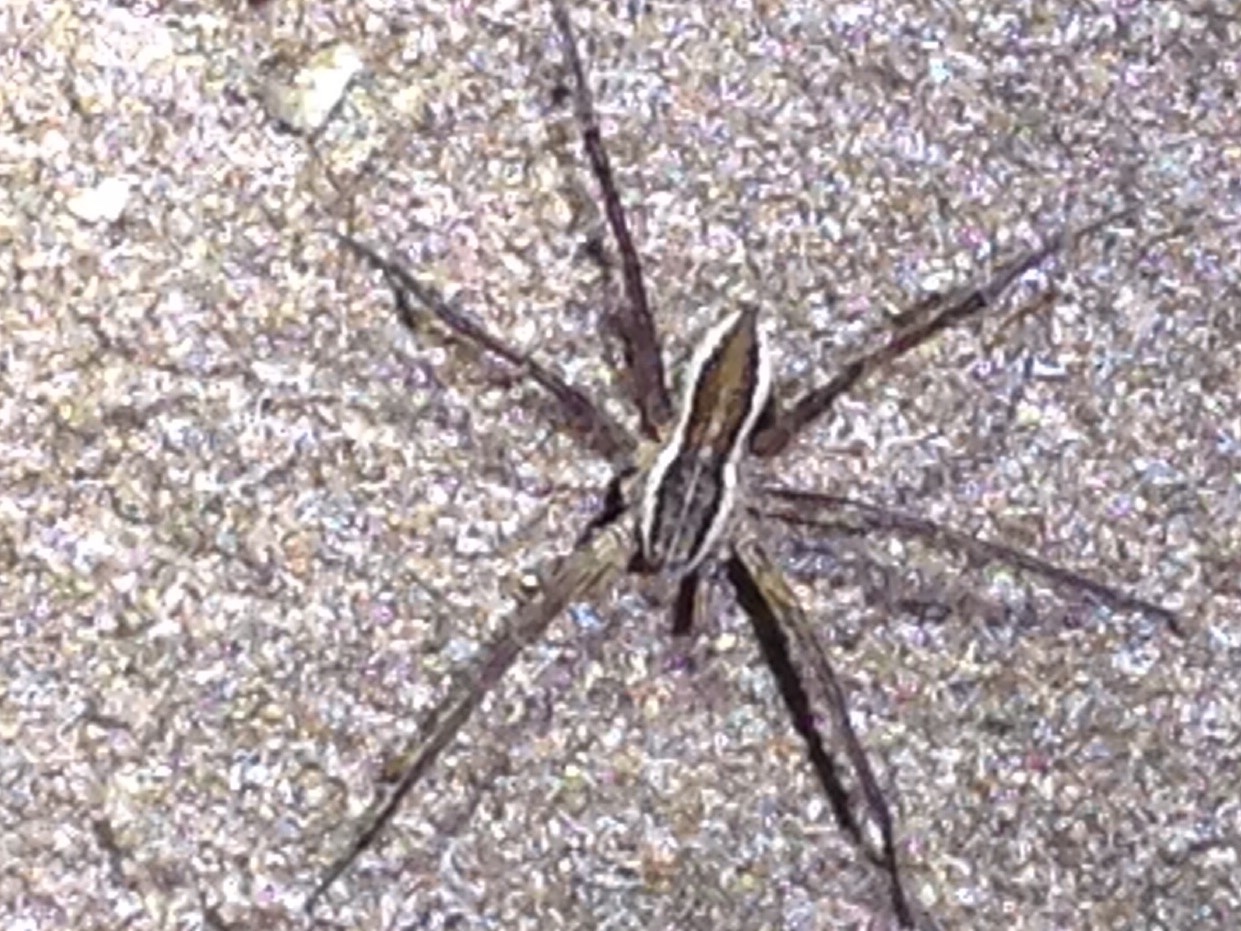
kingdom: Animalia
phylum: Arthropoda
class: Arachnida
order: Araneae
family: Pisauridae
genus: Dolomedes
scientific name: Dolomedes minor
